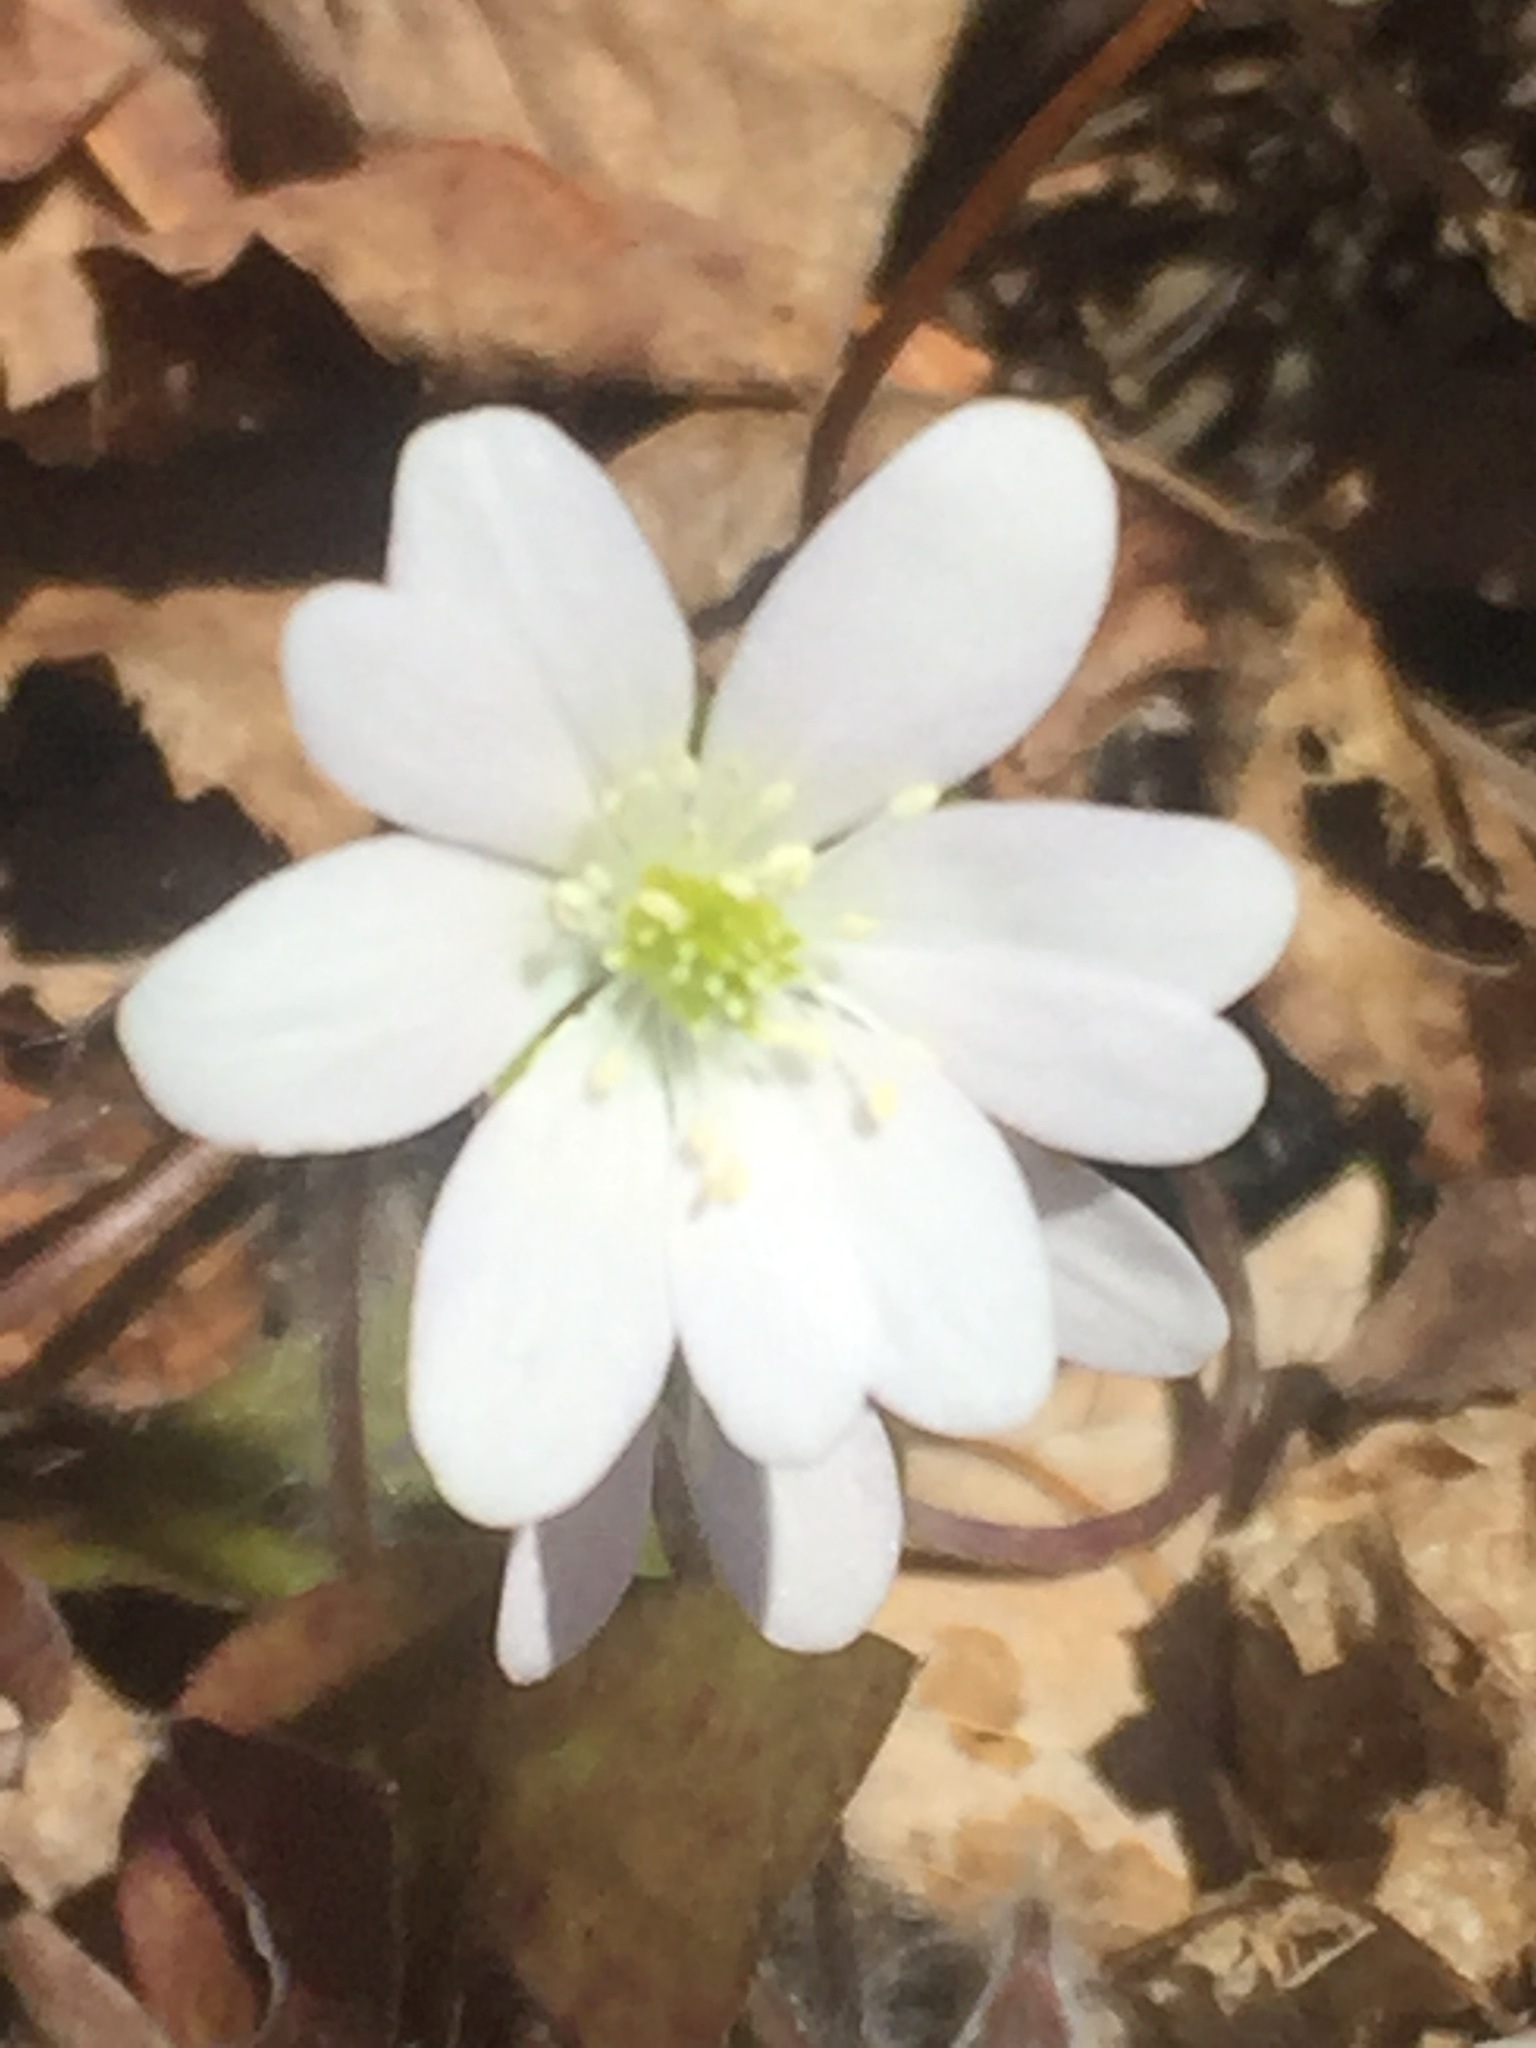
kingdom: Plantae
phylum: Tracheophyta
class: Magnoliopsida
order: Ranunculales
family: Ranunculaceae
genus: Hepatica
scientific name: Hepatica acutiloba
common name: Sharp-lobed hepatica
